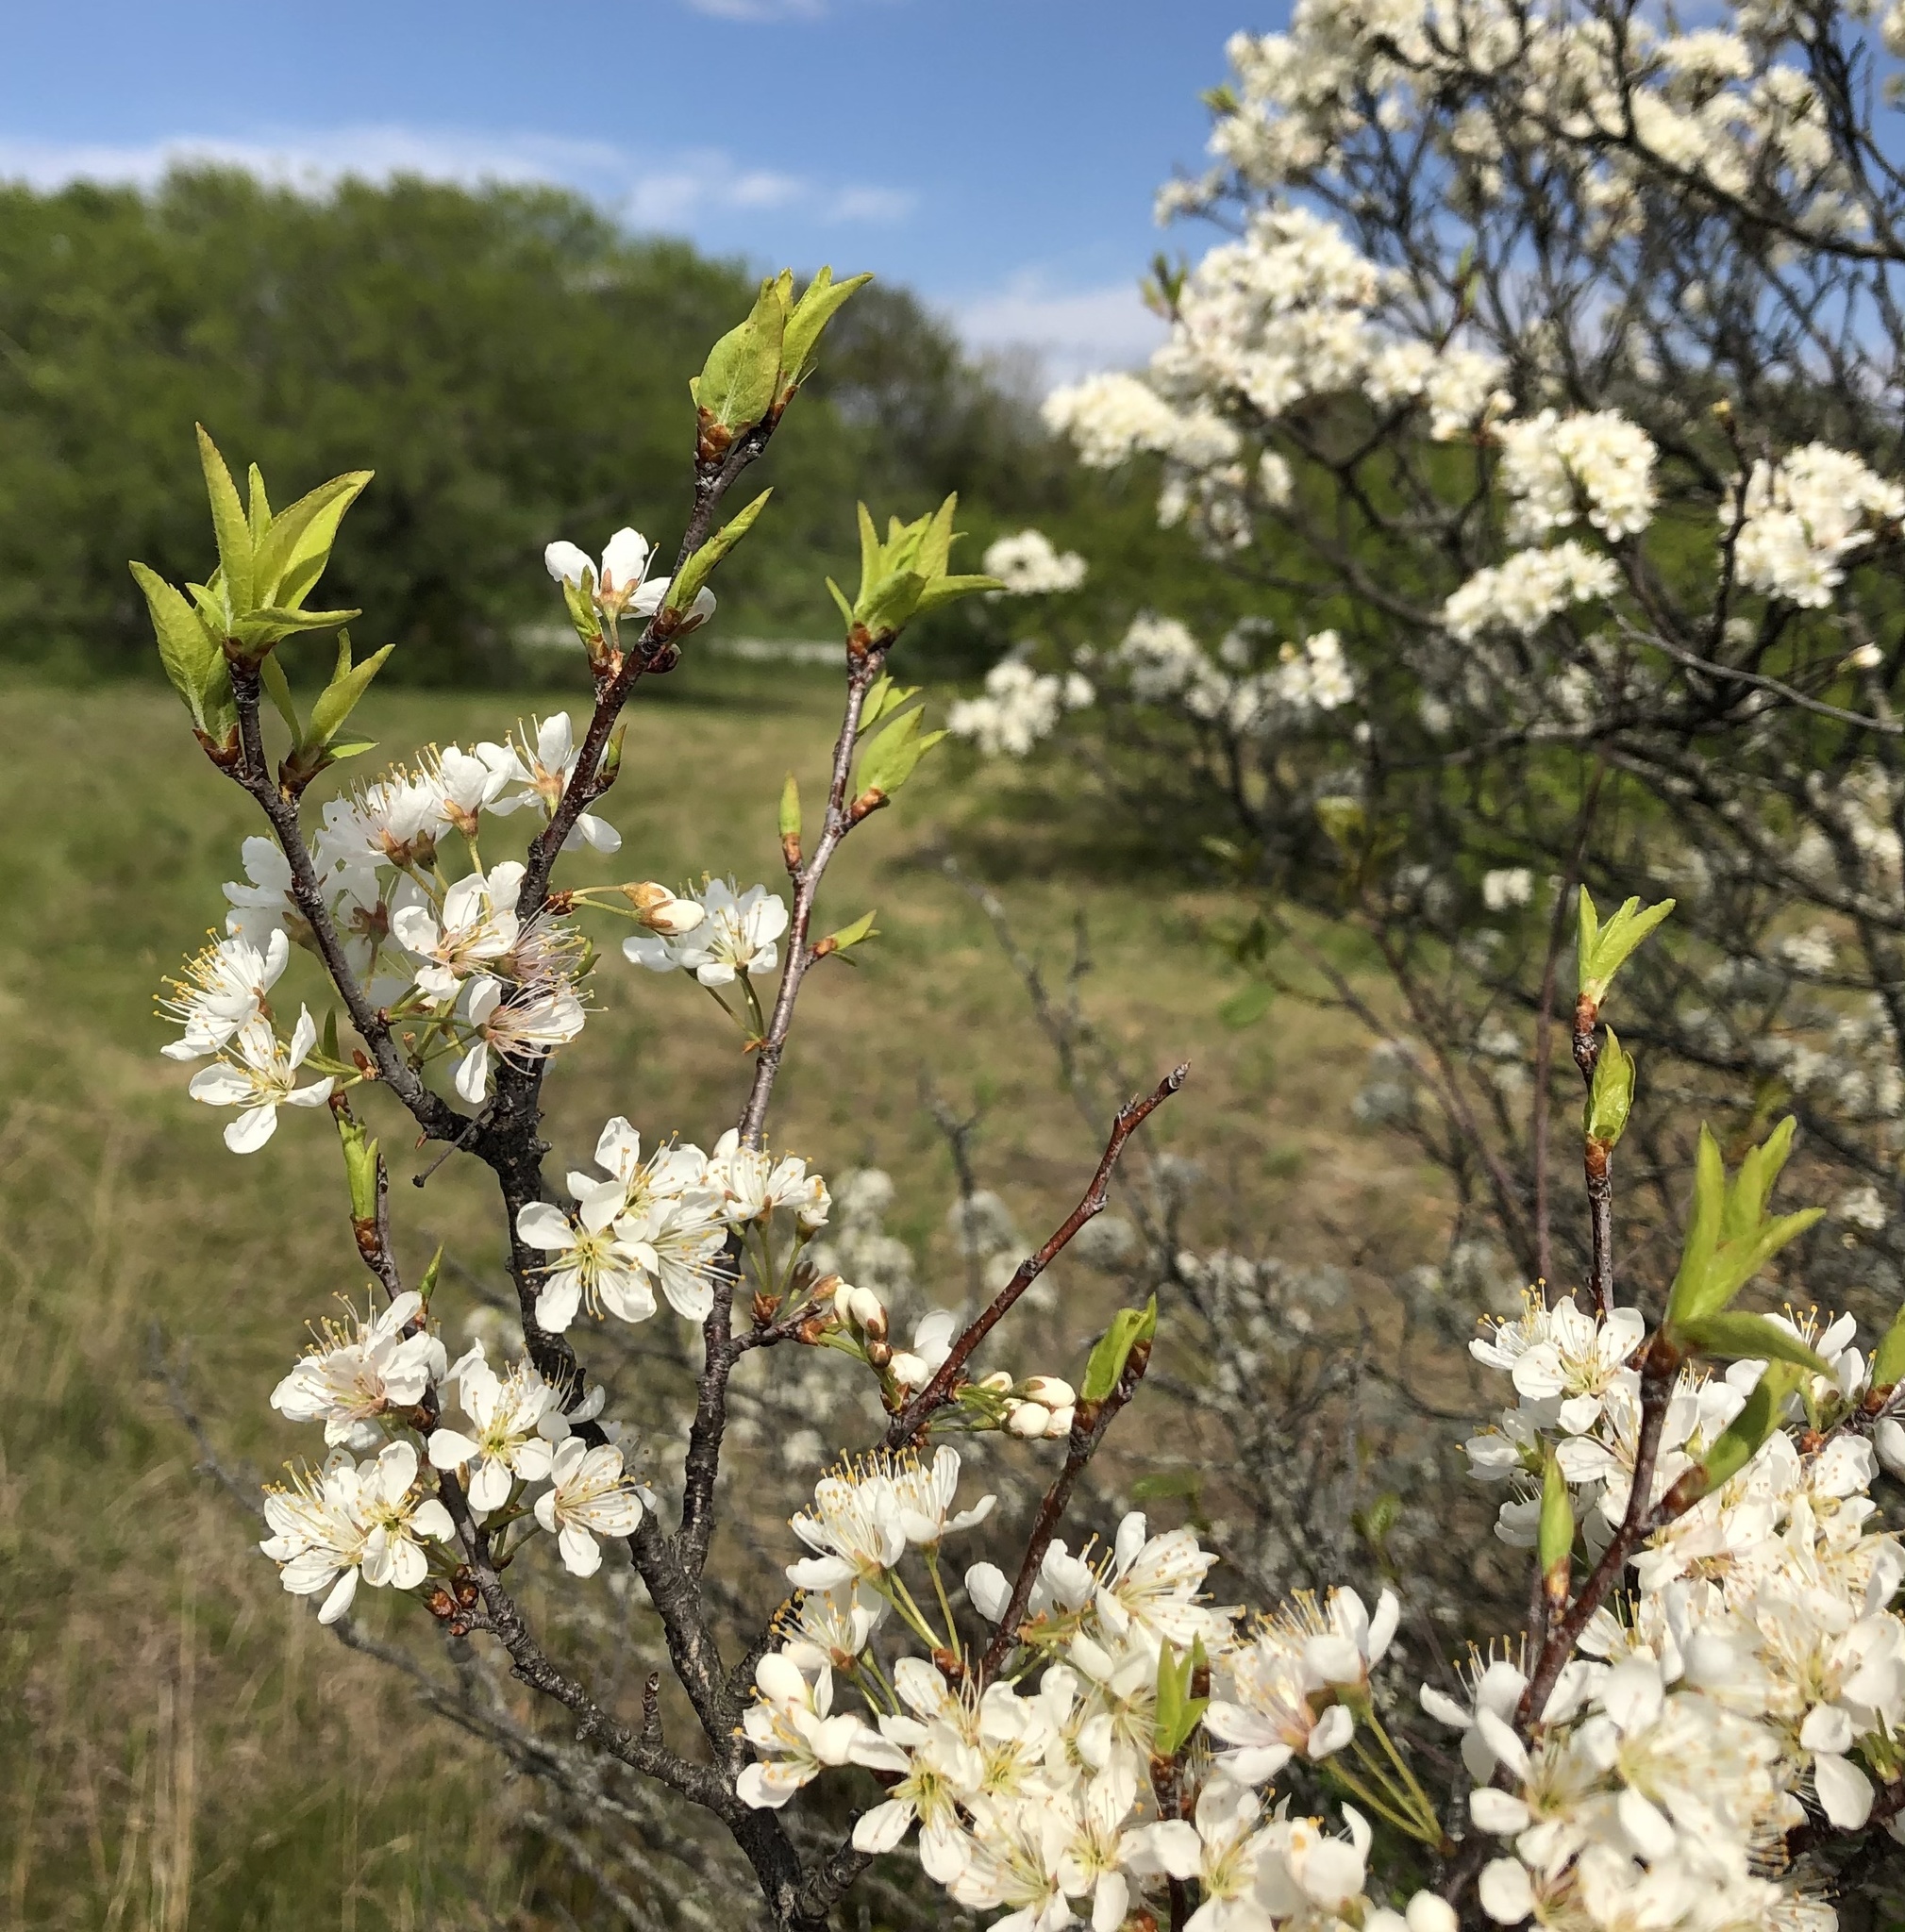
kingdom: Plantae
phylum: Tracheophyta
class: Magnoliopsida
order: Rosales
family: Rosaceae
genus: Prunus
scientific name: Prunus maritima
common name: Beach plum
